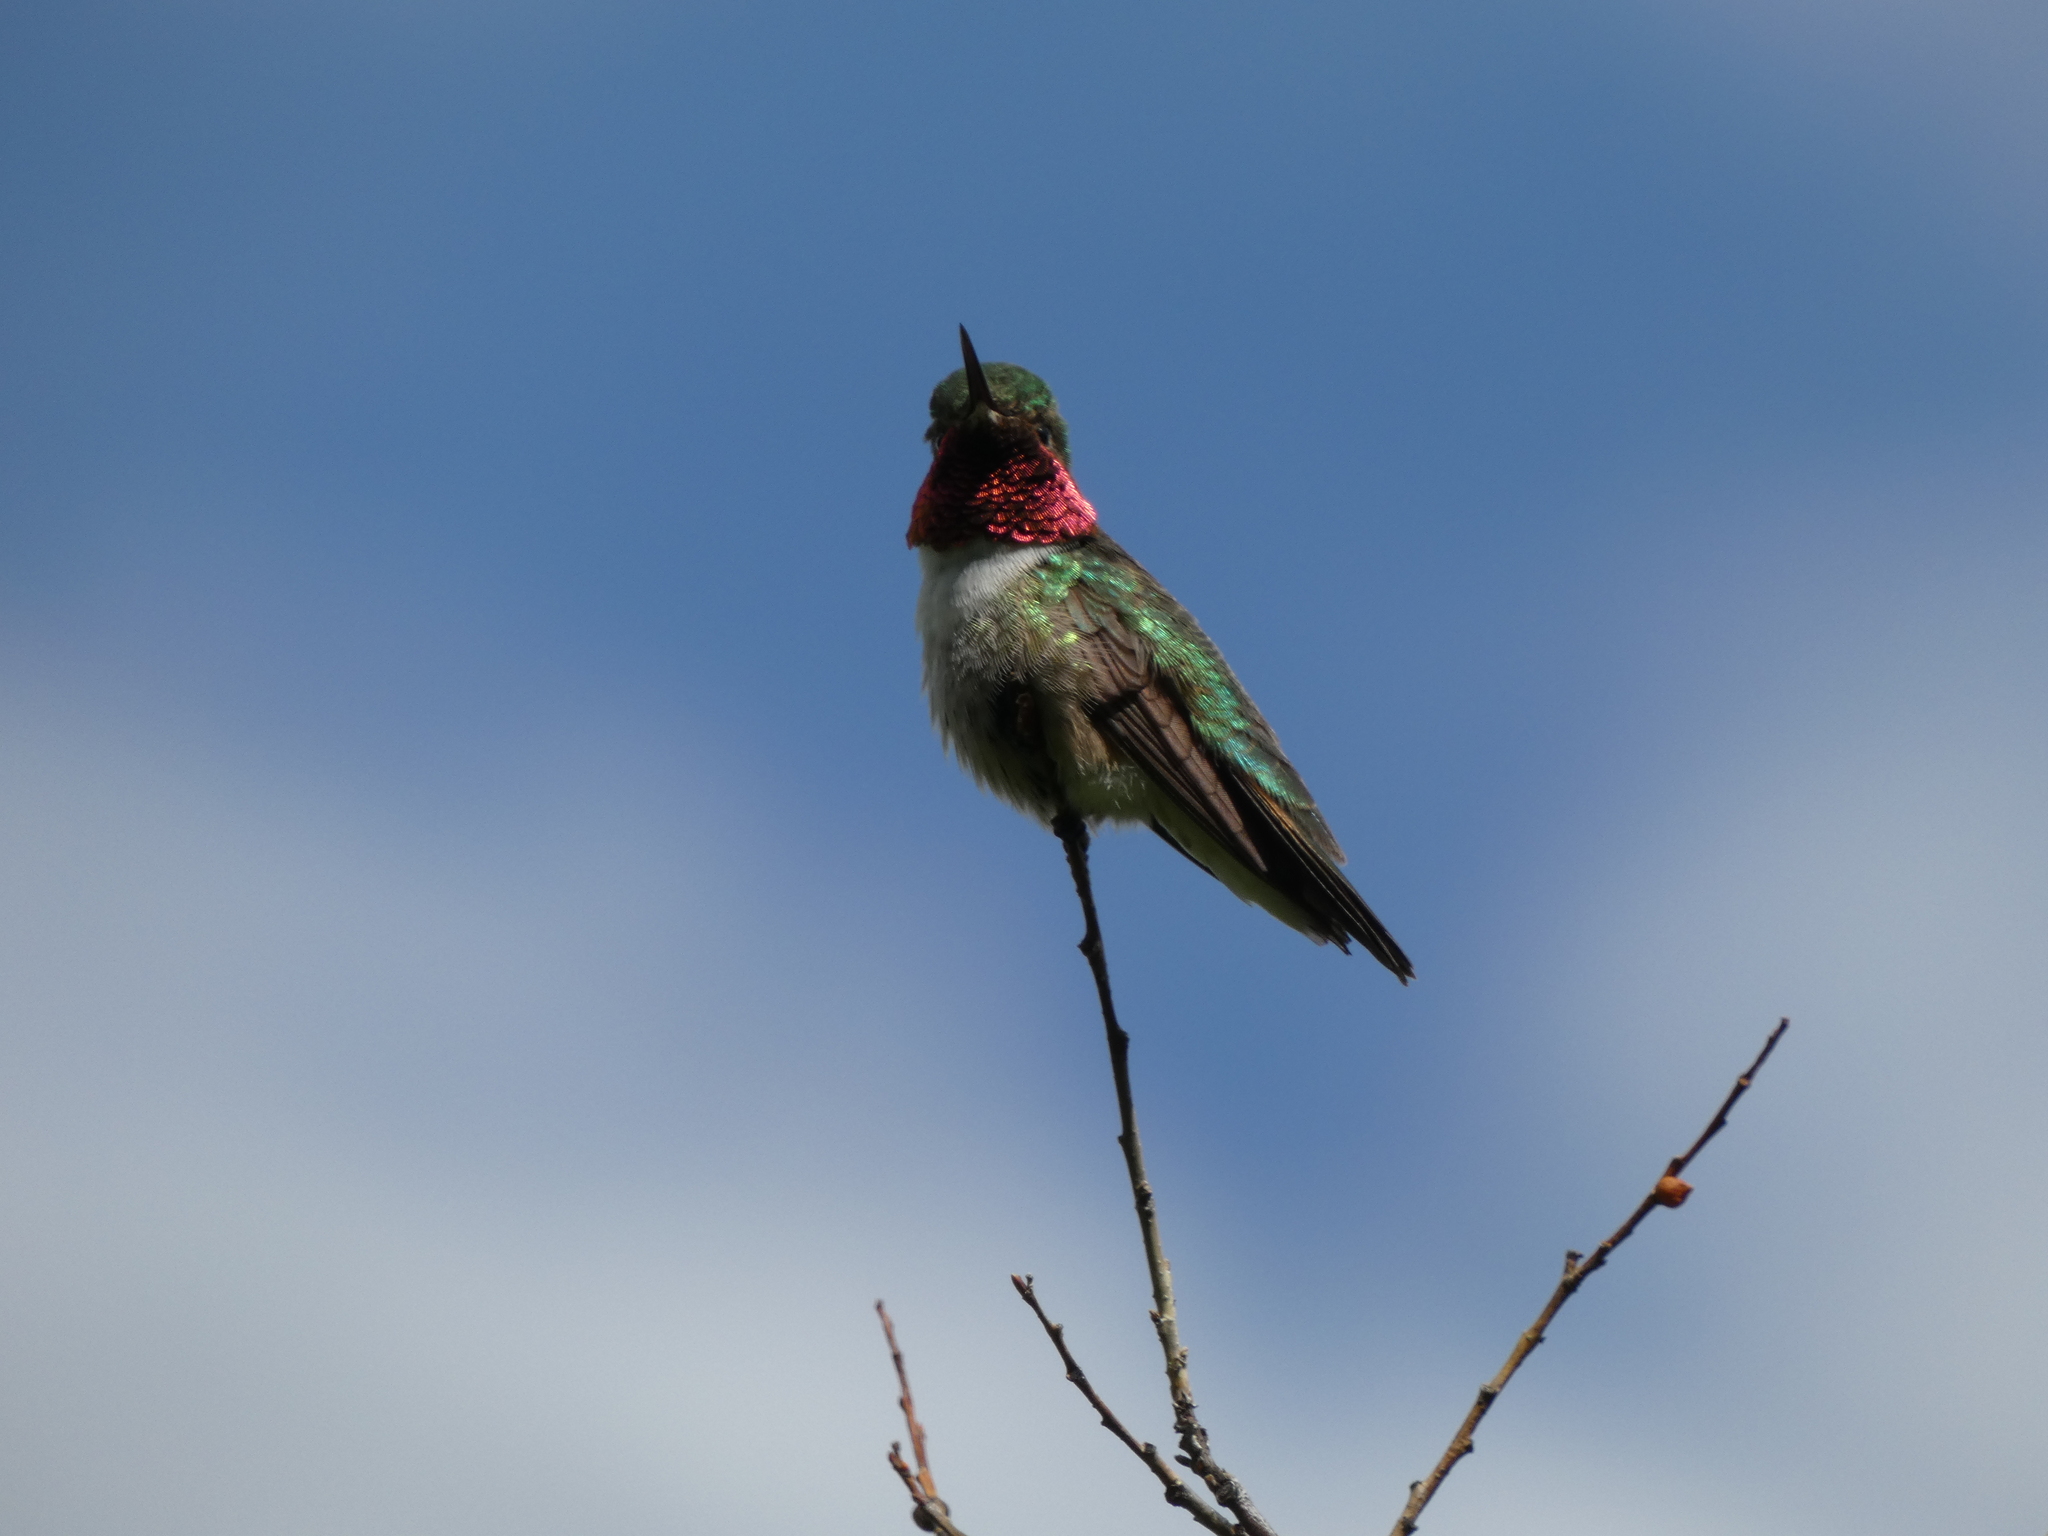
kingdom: Animalia
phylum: Chordata
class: Aves
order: Apodiformes
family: Trochilidae
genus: Selasphorus
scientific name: Selasphorus platycercus
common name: Broad-tailed hummingbird
